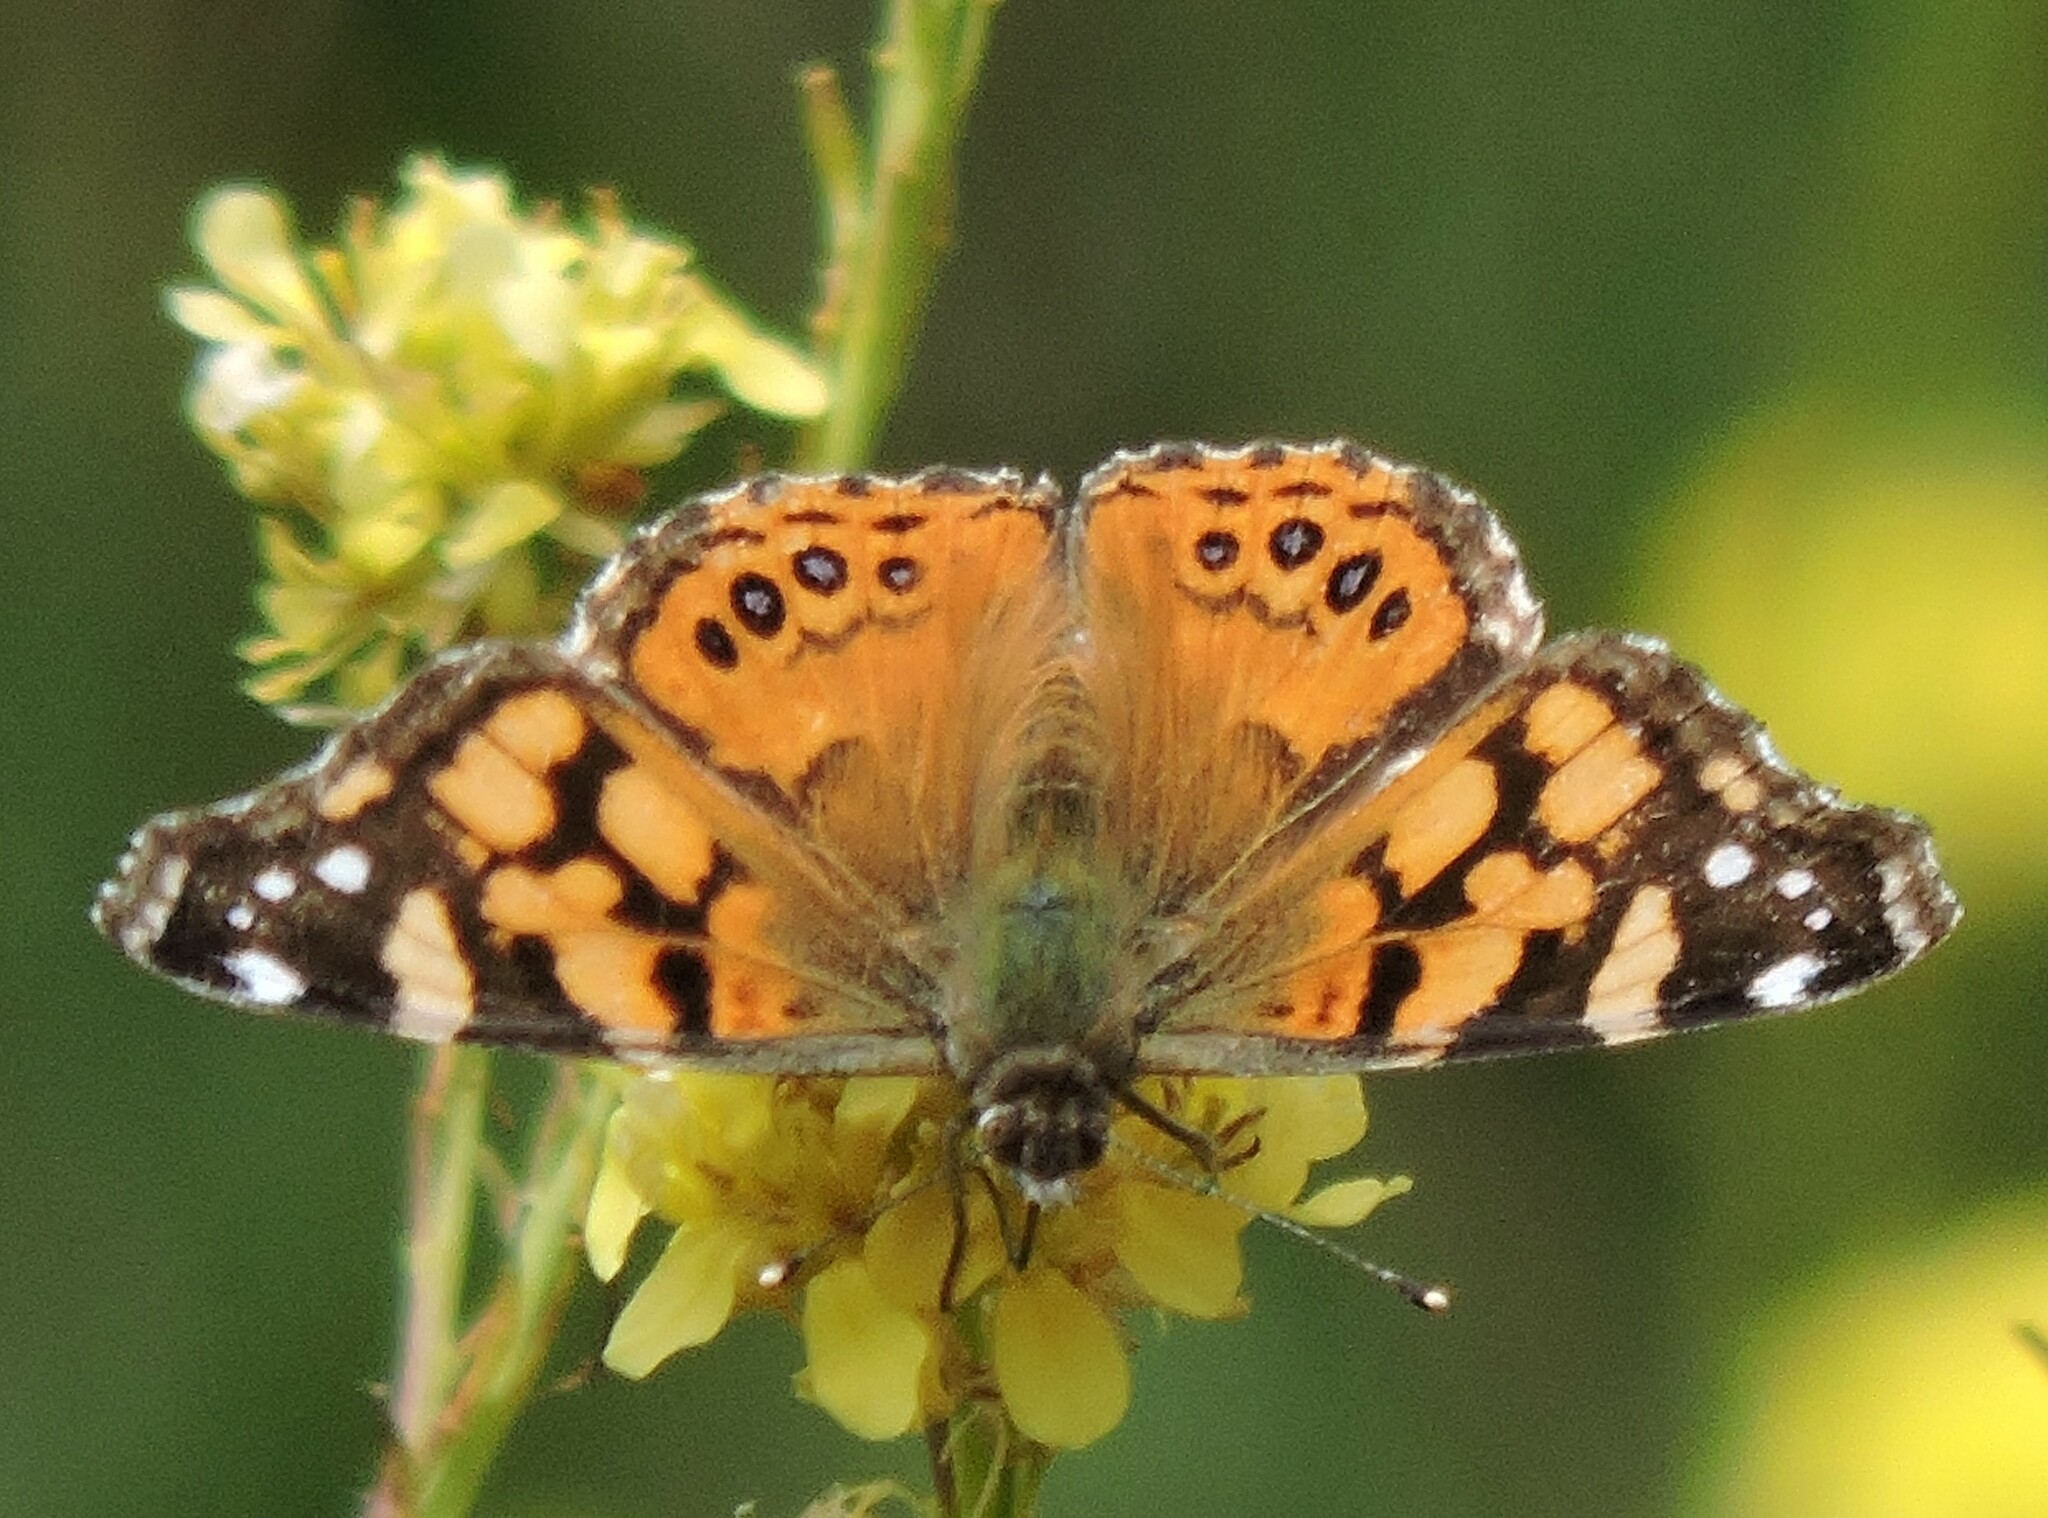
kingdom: Animalia
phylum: Arthropoda
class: Insecta
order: Lepidoptera
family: Nymphalidae
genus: Vanessa
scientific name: Vanessa annabella
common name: West coast lady
